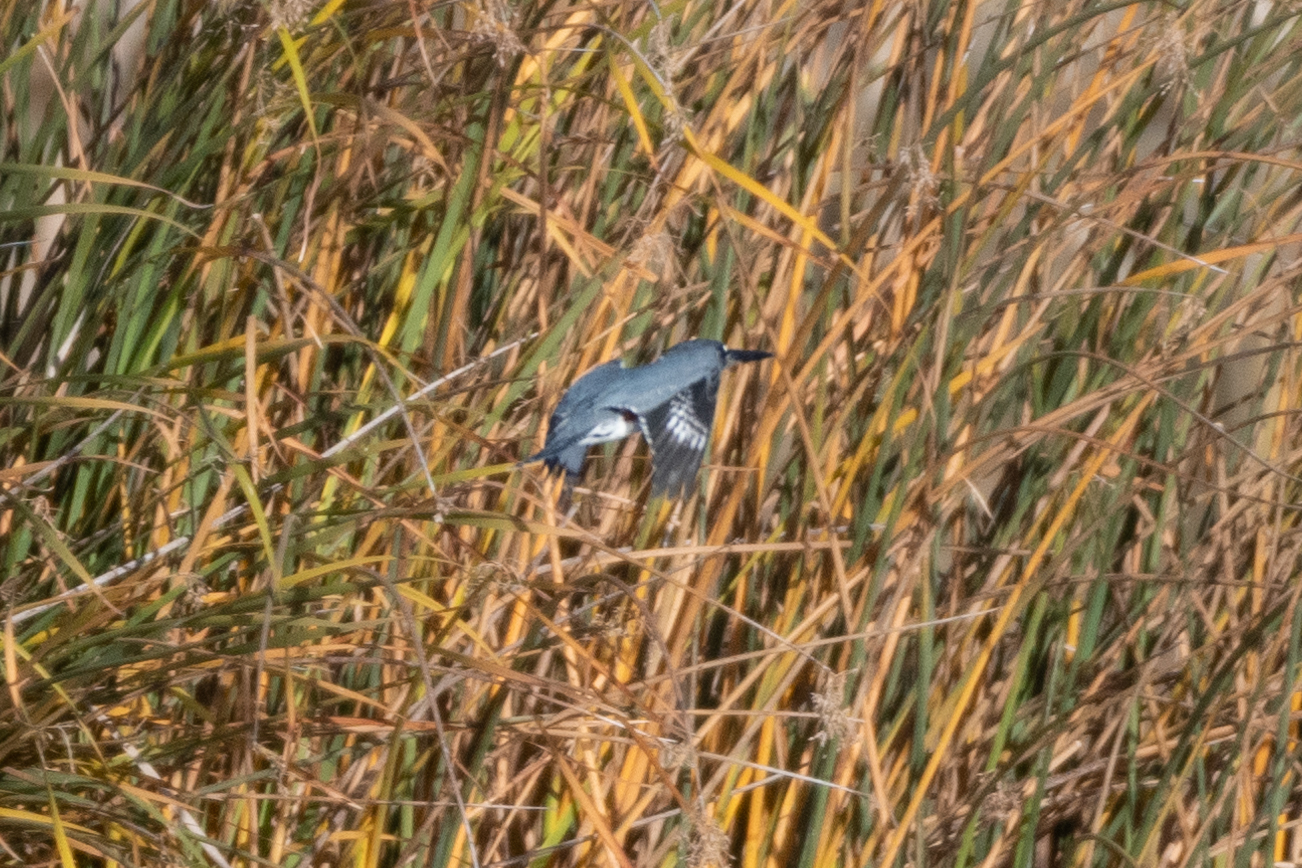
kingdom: Animalia
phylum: Chordata
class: Aves
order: Coraciiformes
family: Alcedinidae
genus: Megaceryle
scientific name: Megaceryle alcyon
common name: Belted kingfisher
